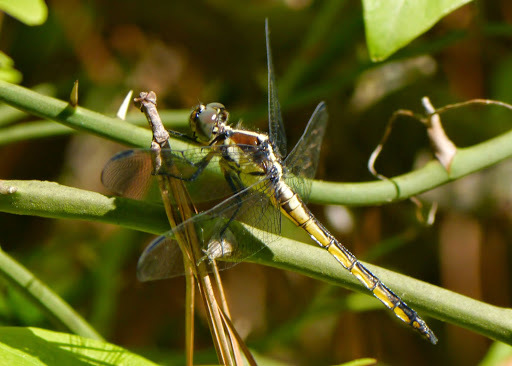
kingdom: Animalia
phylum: Arthropoda
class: Insecta
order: Odonata
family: Libellulidae
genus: Libellula
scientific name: Libellula incesta
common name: Slaty skimmer
